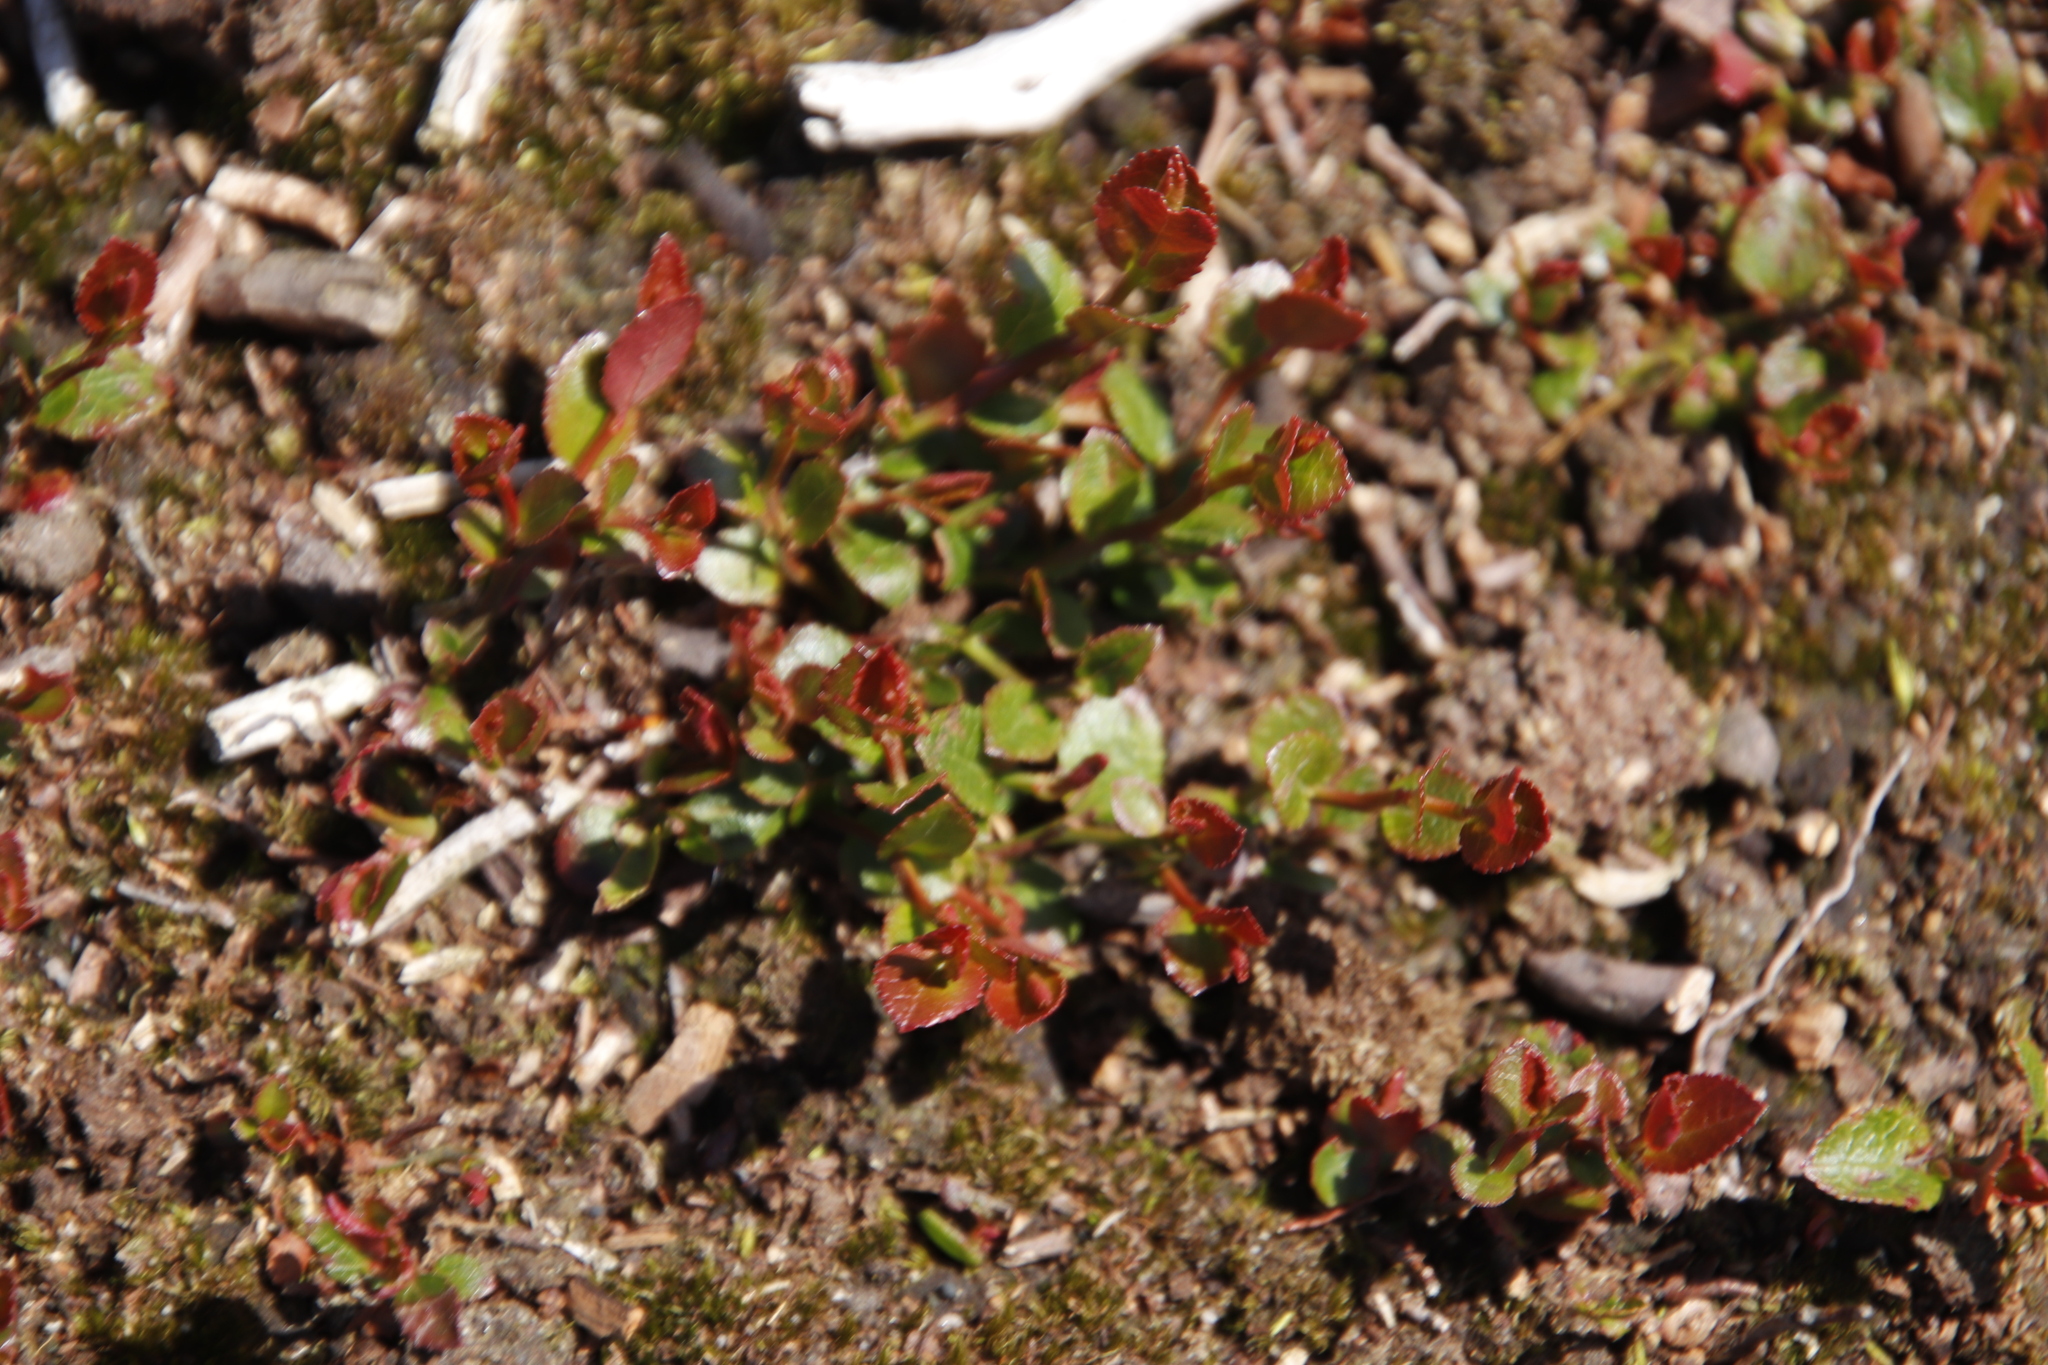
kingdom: Plantae
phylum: Tracheophyta
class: Magnoliopsida
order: Ericales
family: Ericaceae
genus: Vaccinium
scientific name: Vaccinium myrtillus
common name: Bilberry
